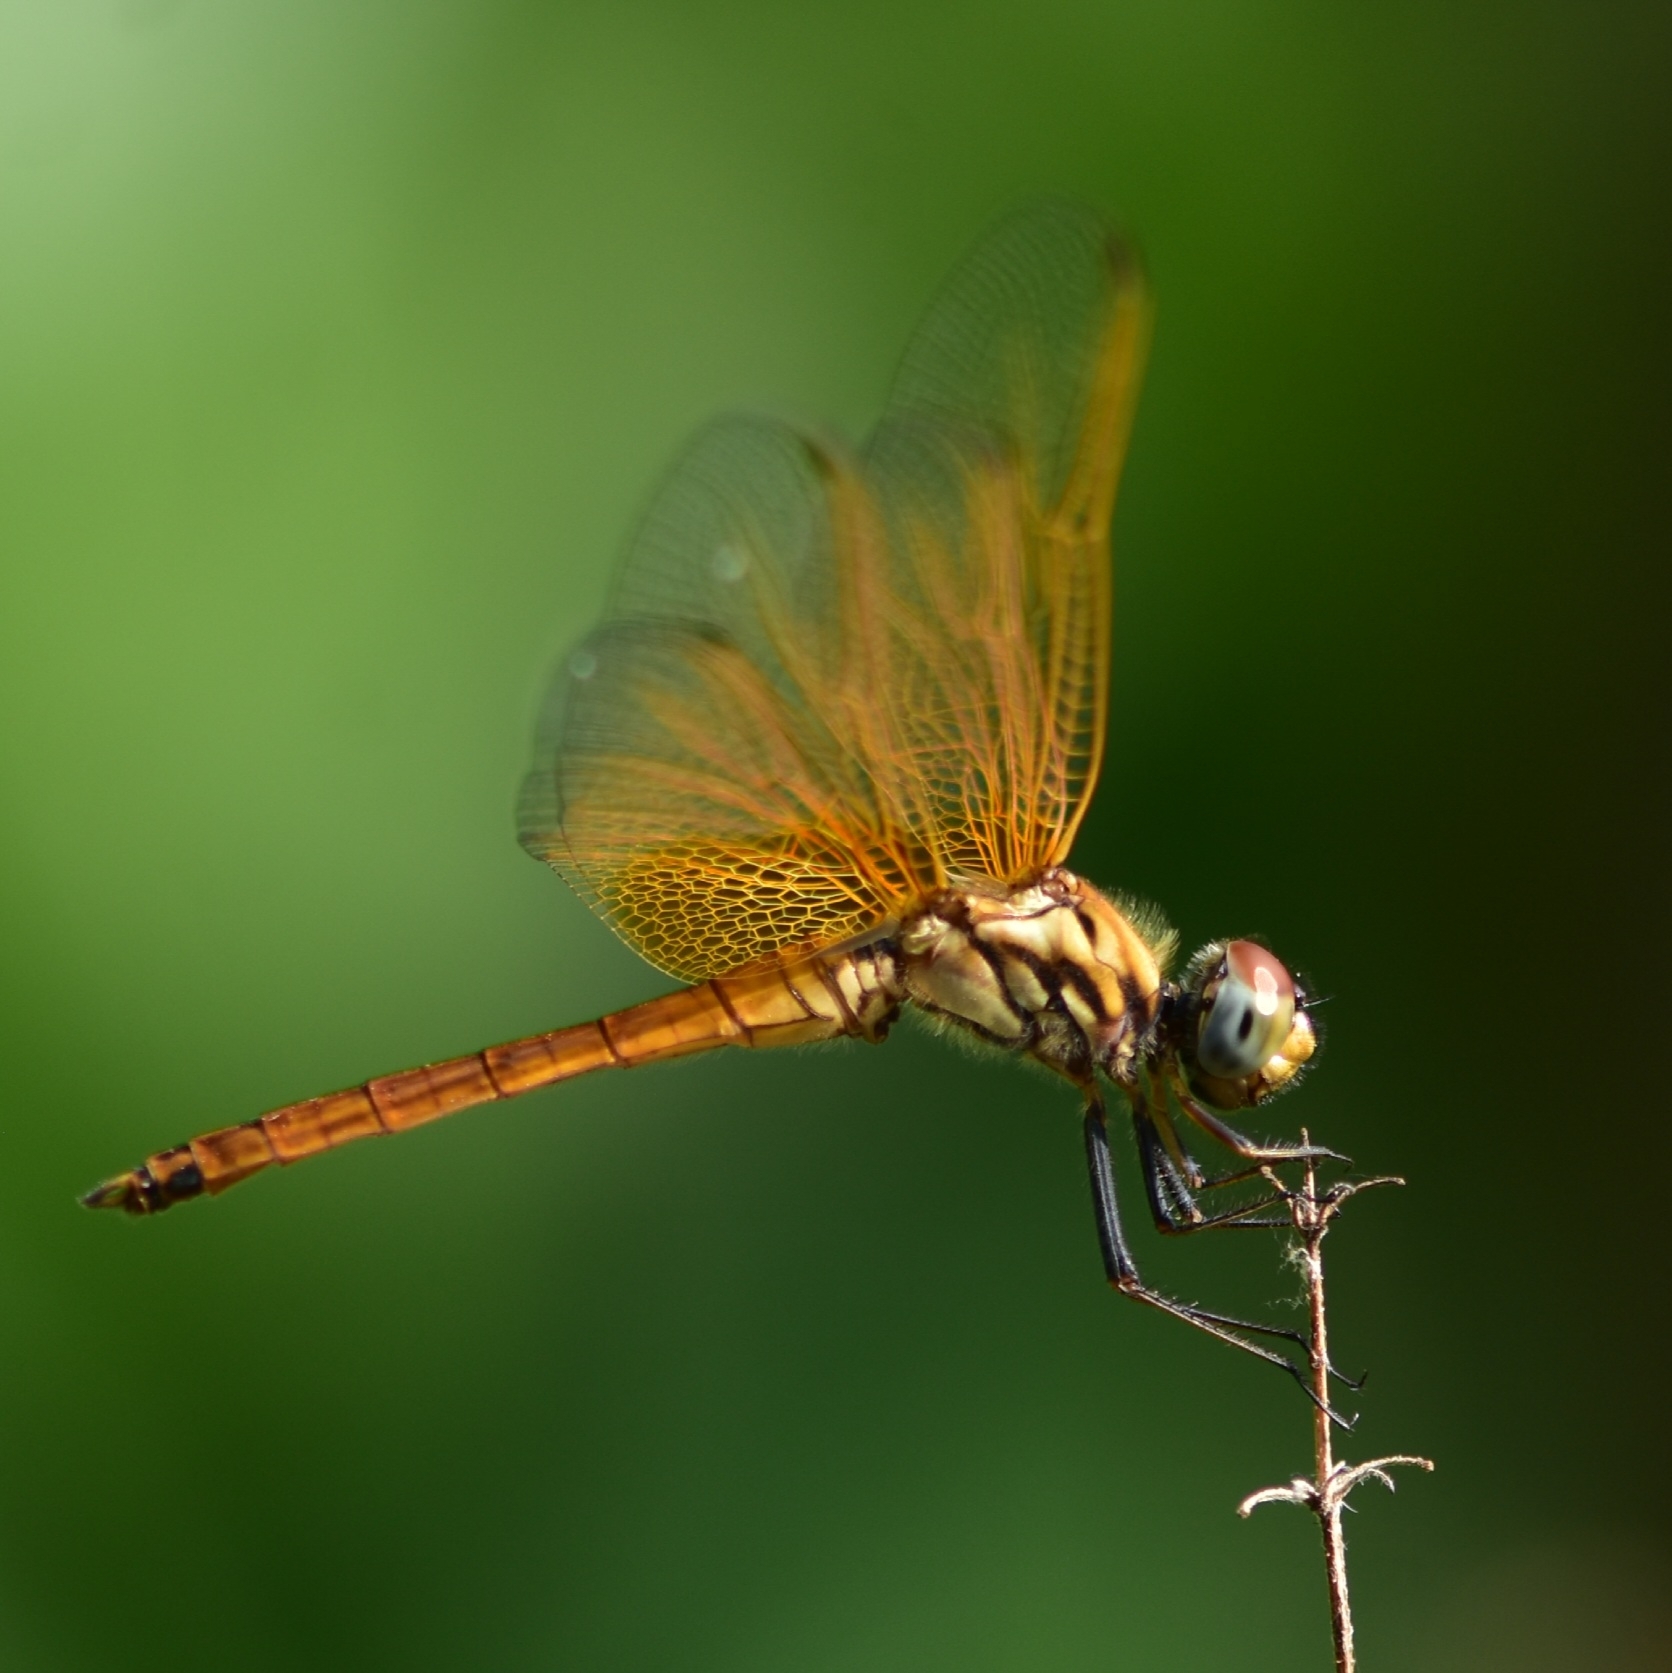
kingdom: Animalia
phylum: Arthropoda
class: Insecta
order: Odonata
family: Libellulidae
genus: Trithemis
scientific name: Trithemis aurora
